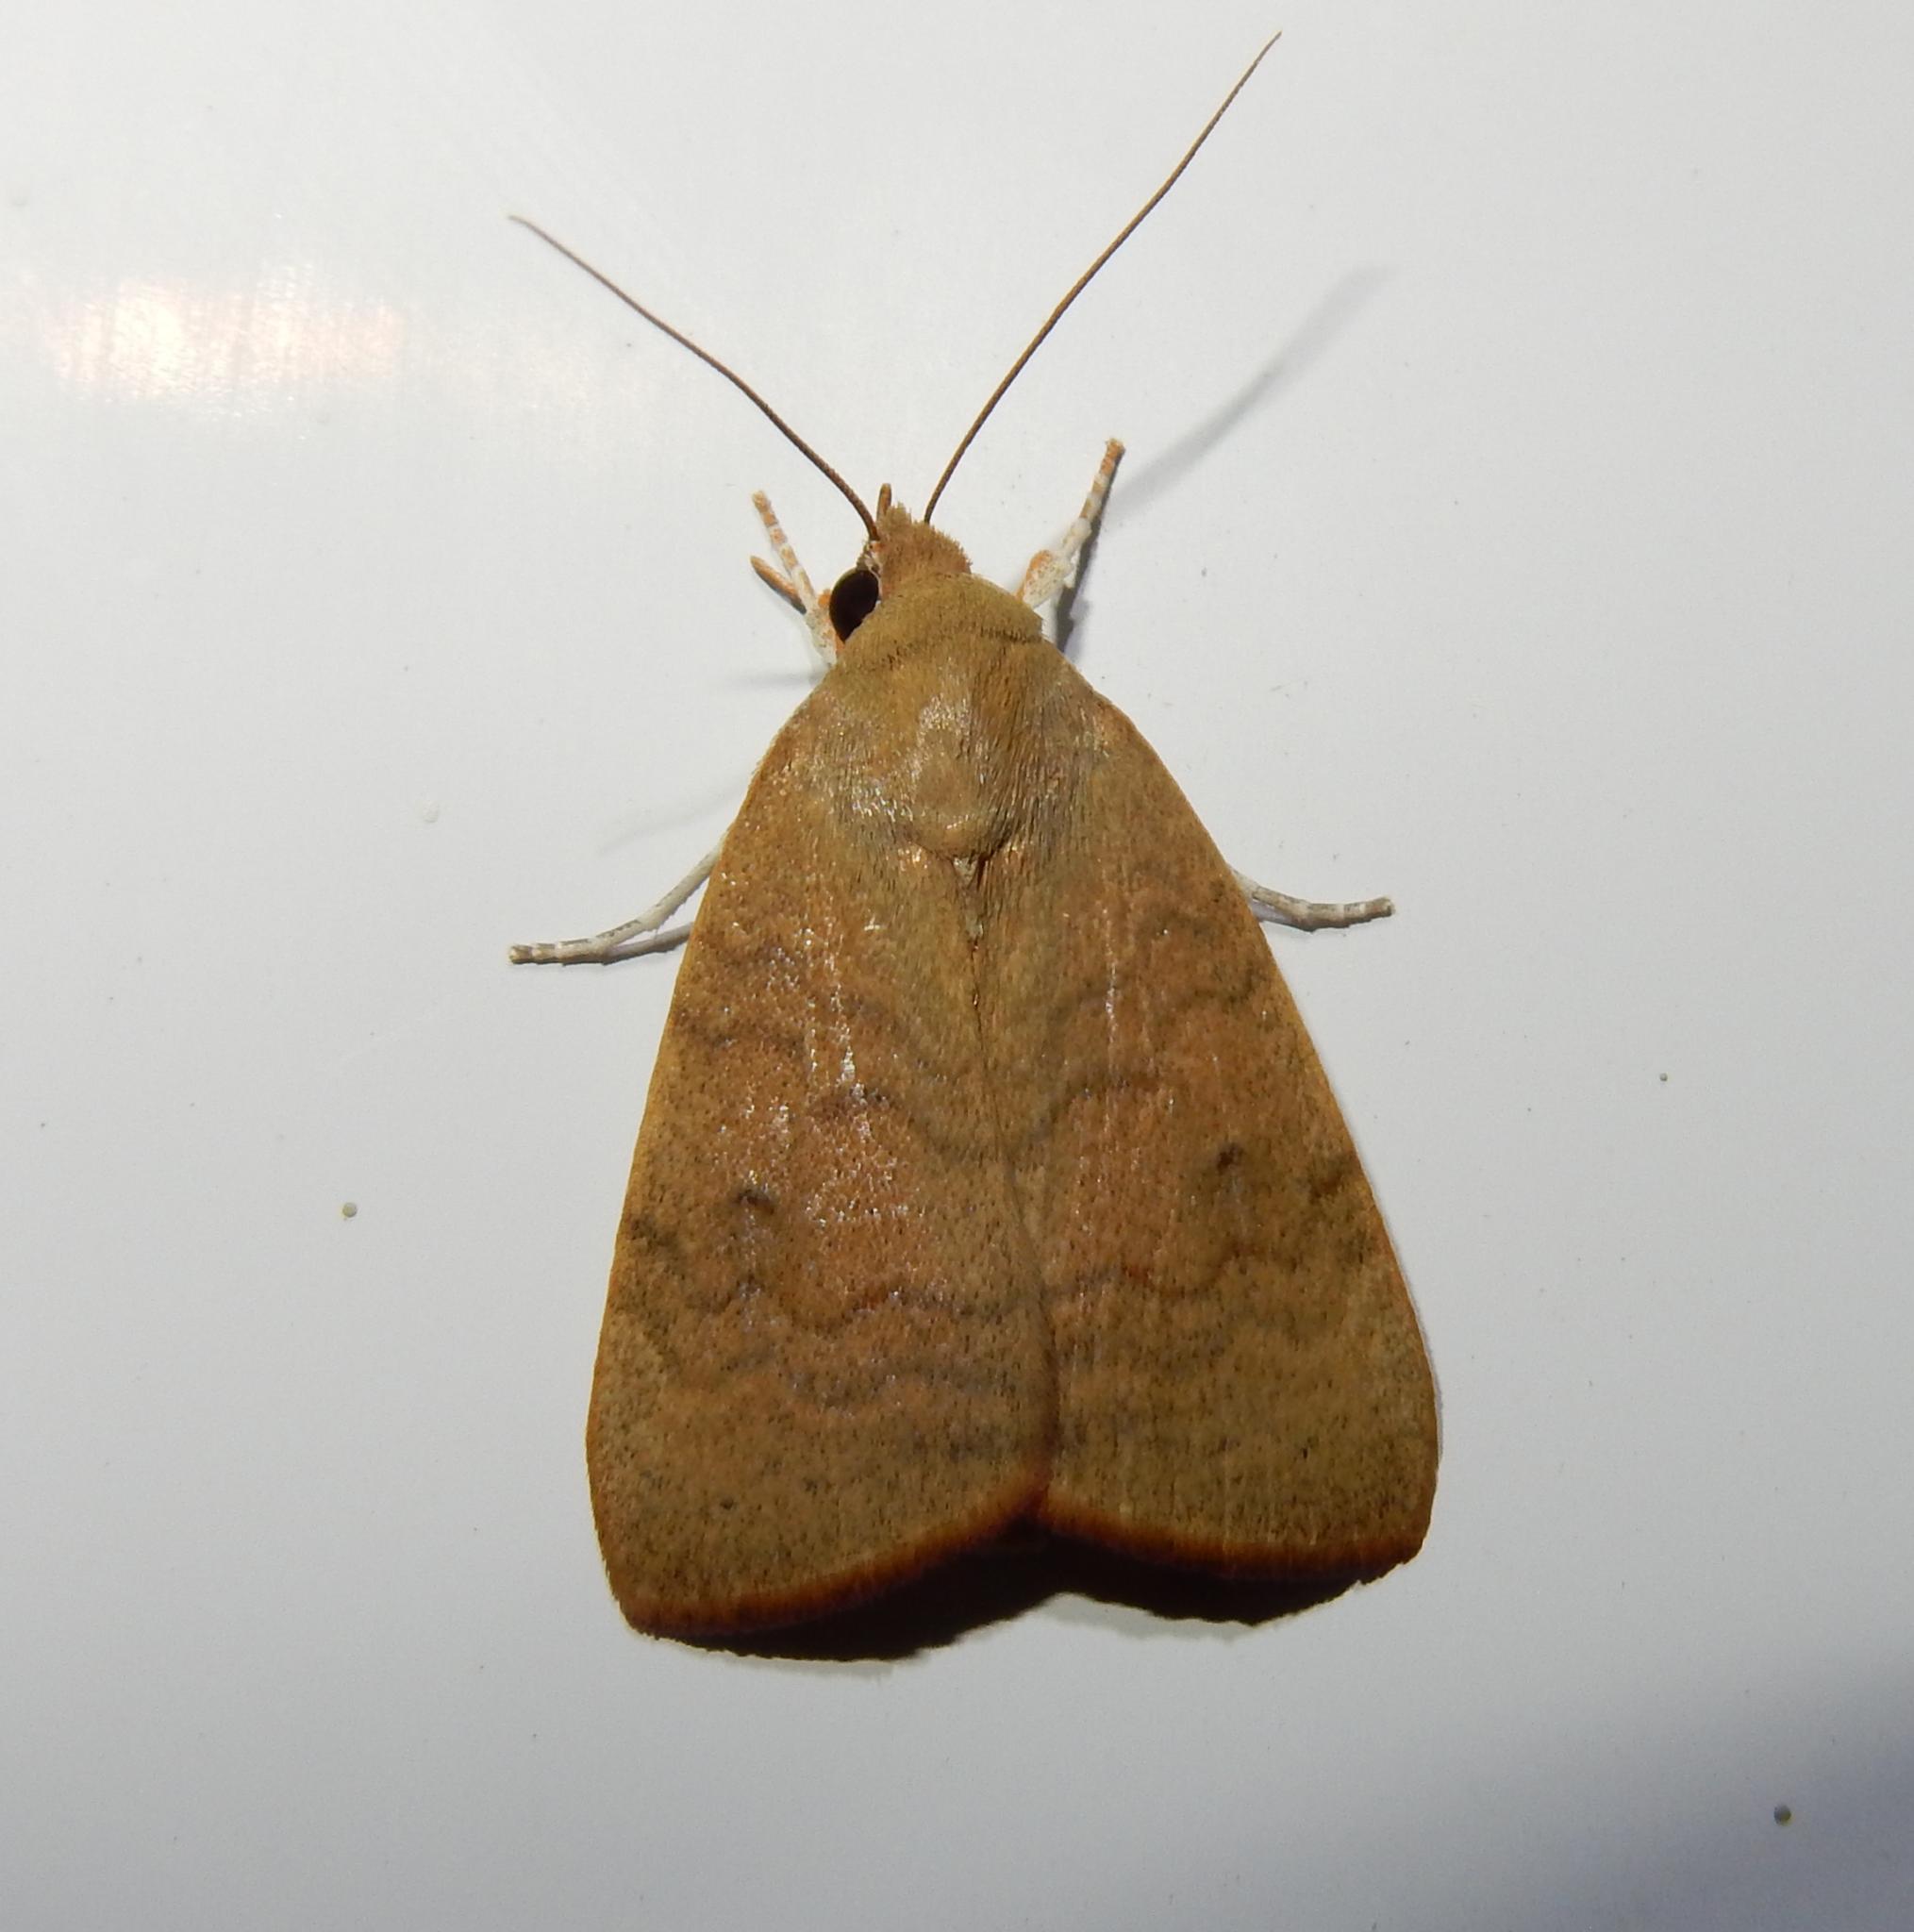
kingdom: Animalia
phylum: Arthropoda
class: Insecta
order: Lepidoptera
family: Nolidae
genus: Maurilia
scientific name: Maurilia arcuata
